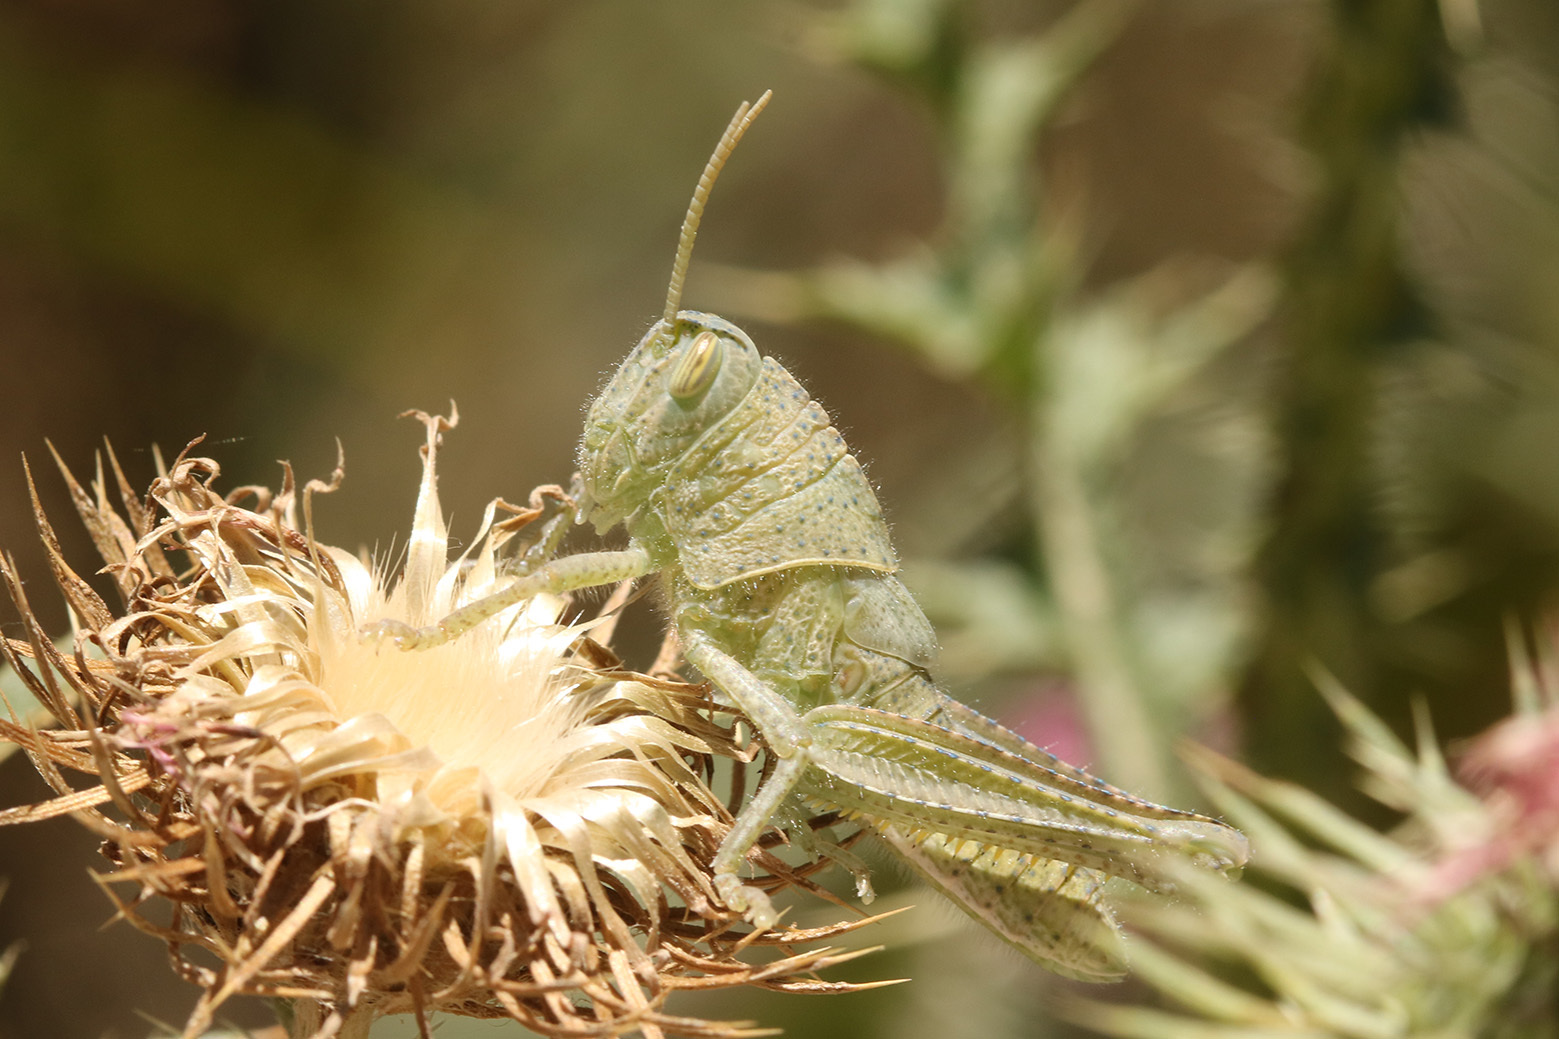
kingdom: Animalia
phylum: Arthropoda
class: Insecta
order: Orthoptera
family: Acrididae
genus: Schistocerca
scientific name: Schistocerca flavofasciata
